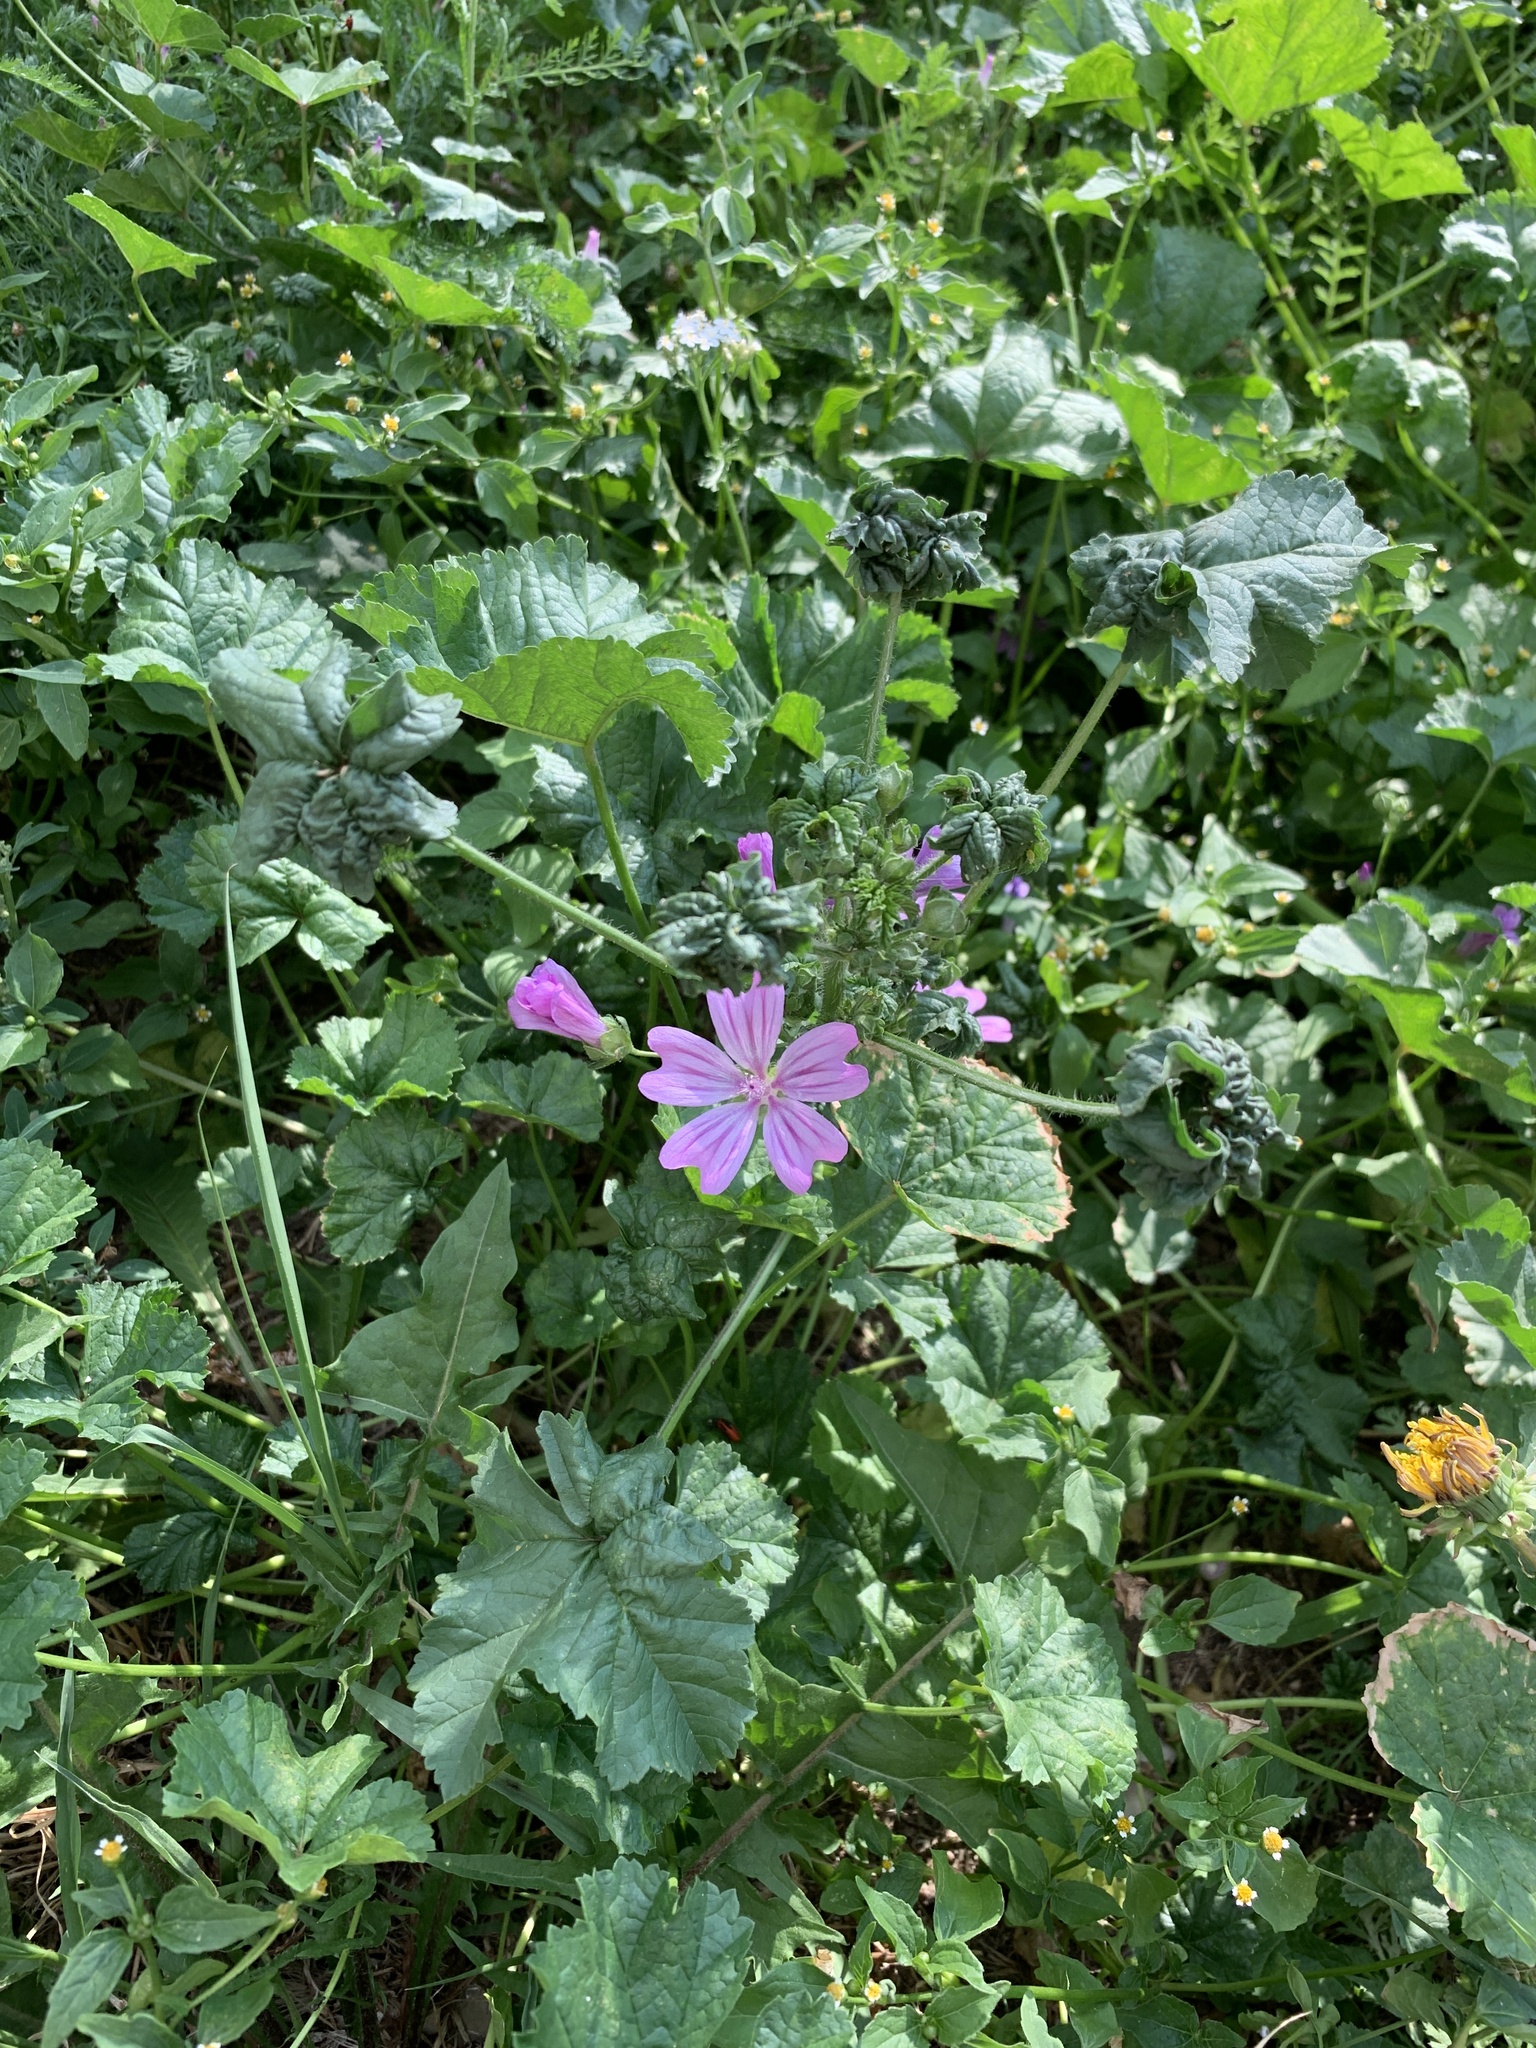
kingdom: Plantae
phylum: Tracheophyta
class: Magnoliopsida
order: Malvales
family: Malvaceae
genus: Malva
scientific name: Malva sylvestris
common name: Common mallow
